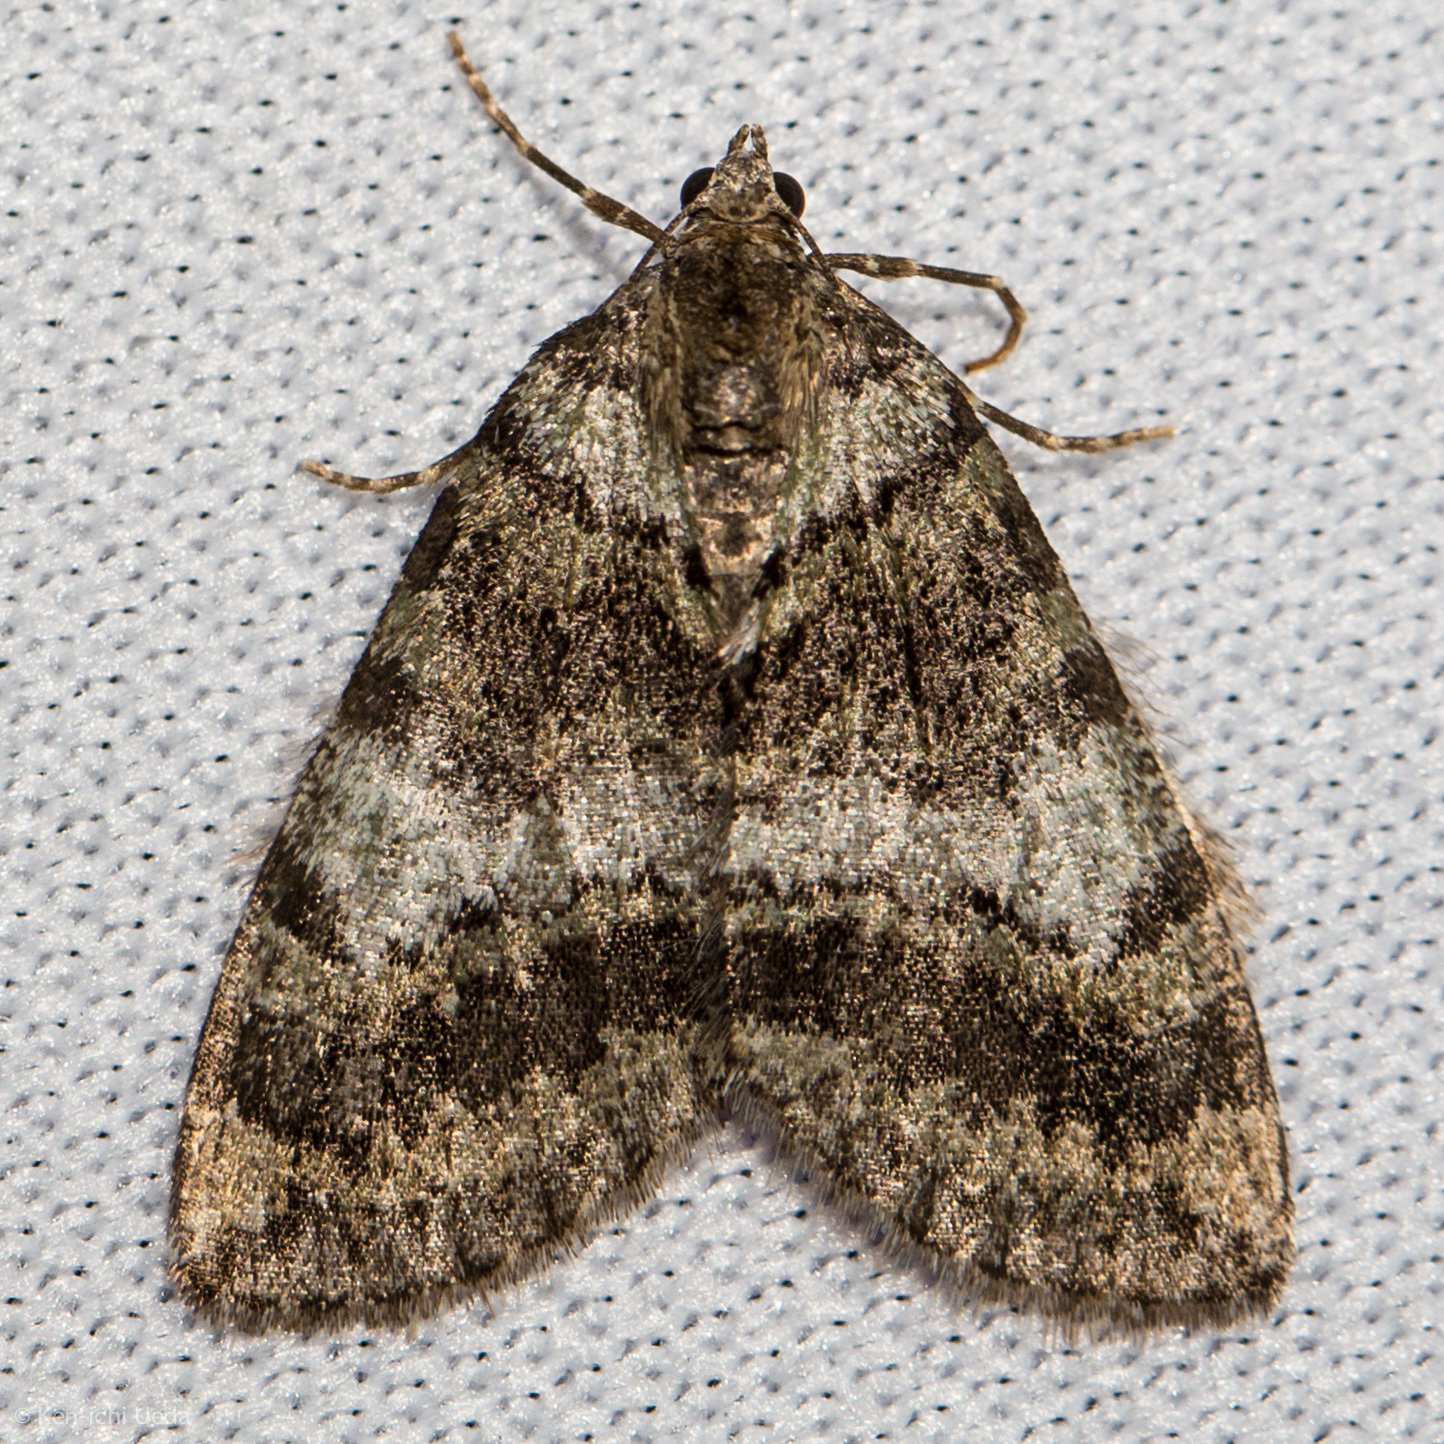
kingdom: Animalia
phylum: Arthropoda
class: Insecta
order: Lepidoptera
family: Geometridae
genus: Hydriomena
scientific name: Hydriomena nubilofasciata
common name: Oak winter highflier moth
